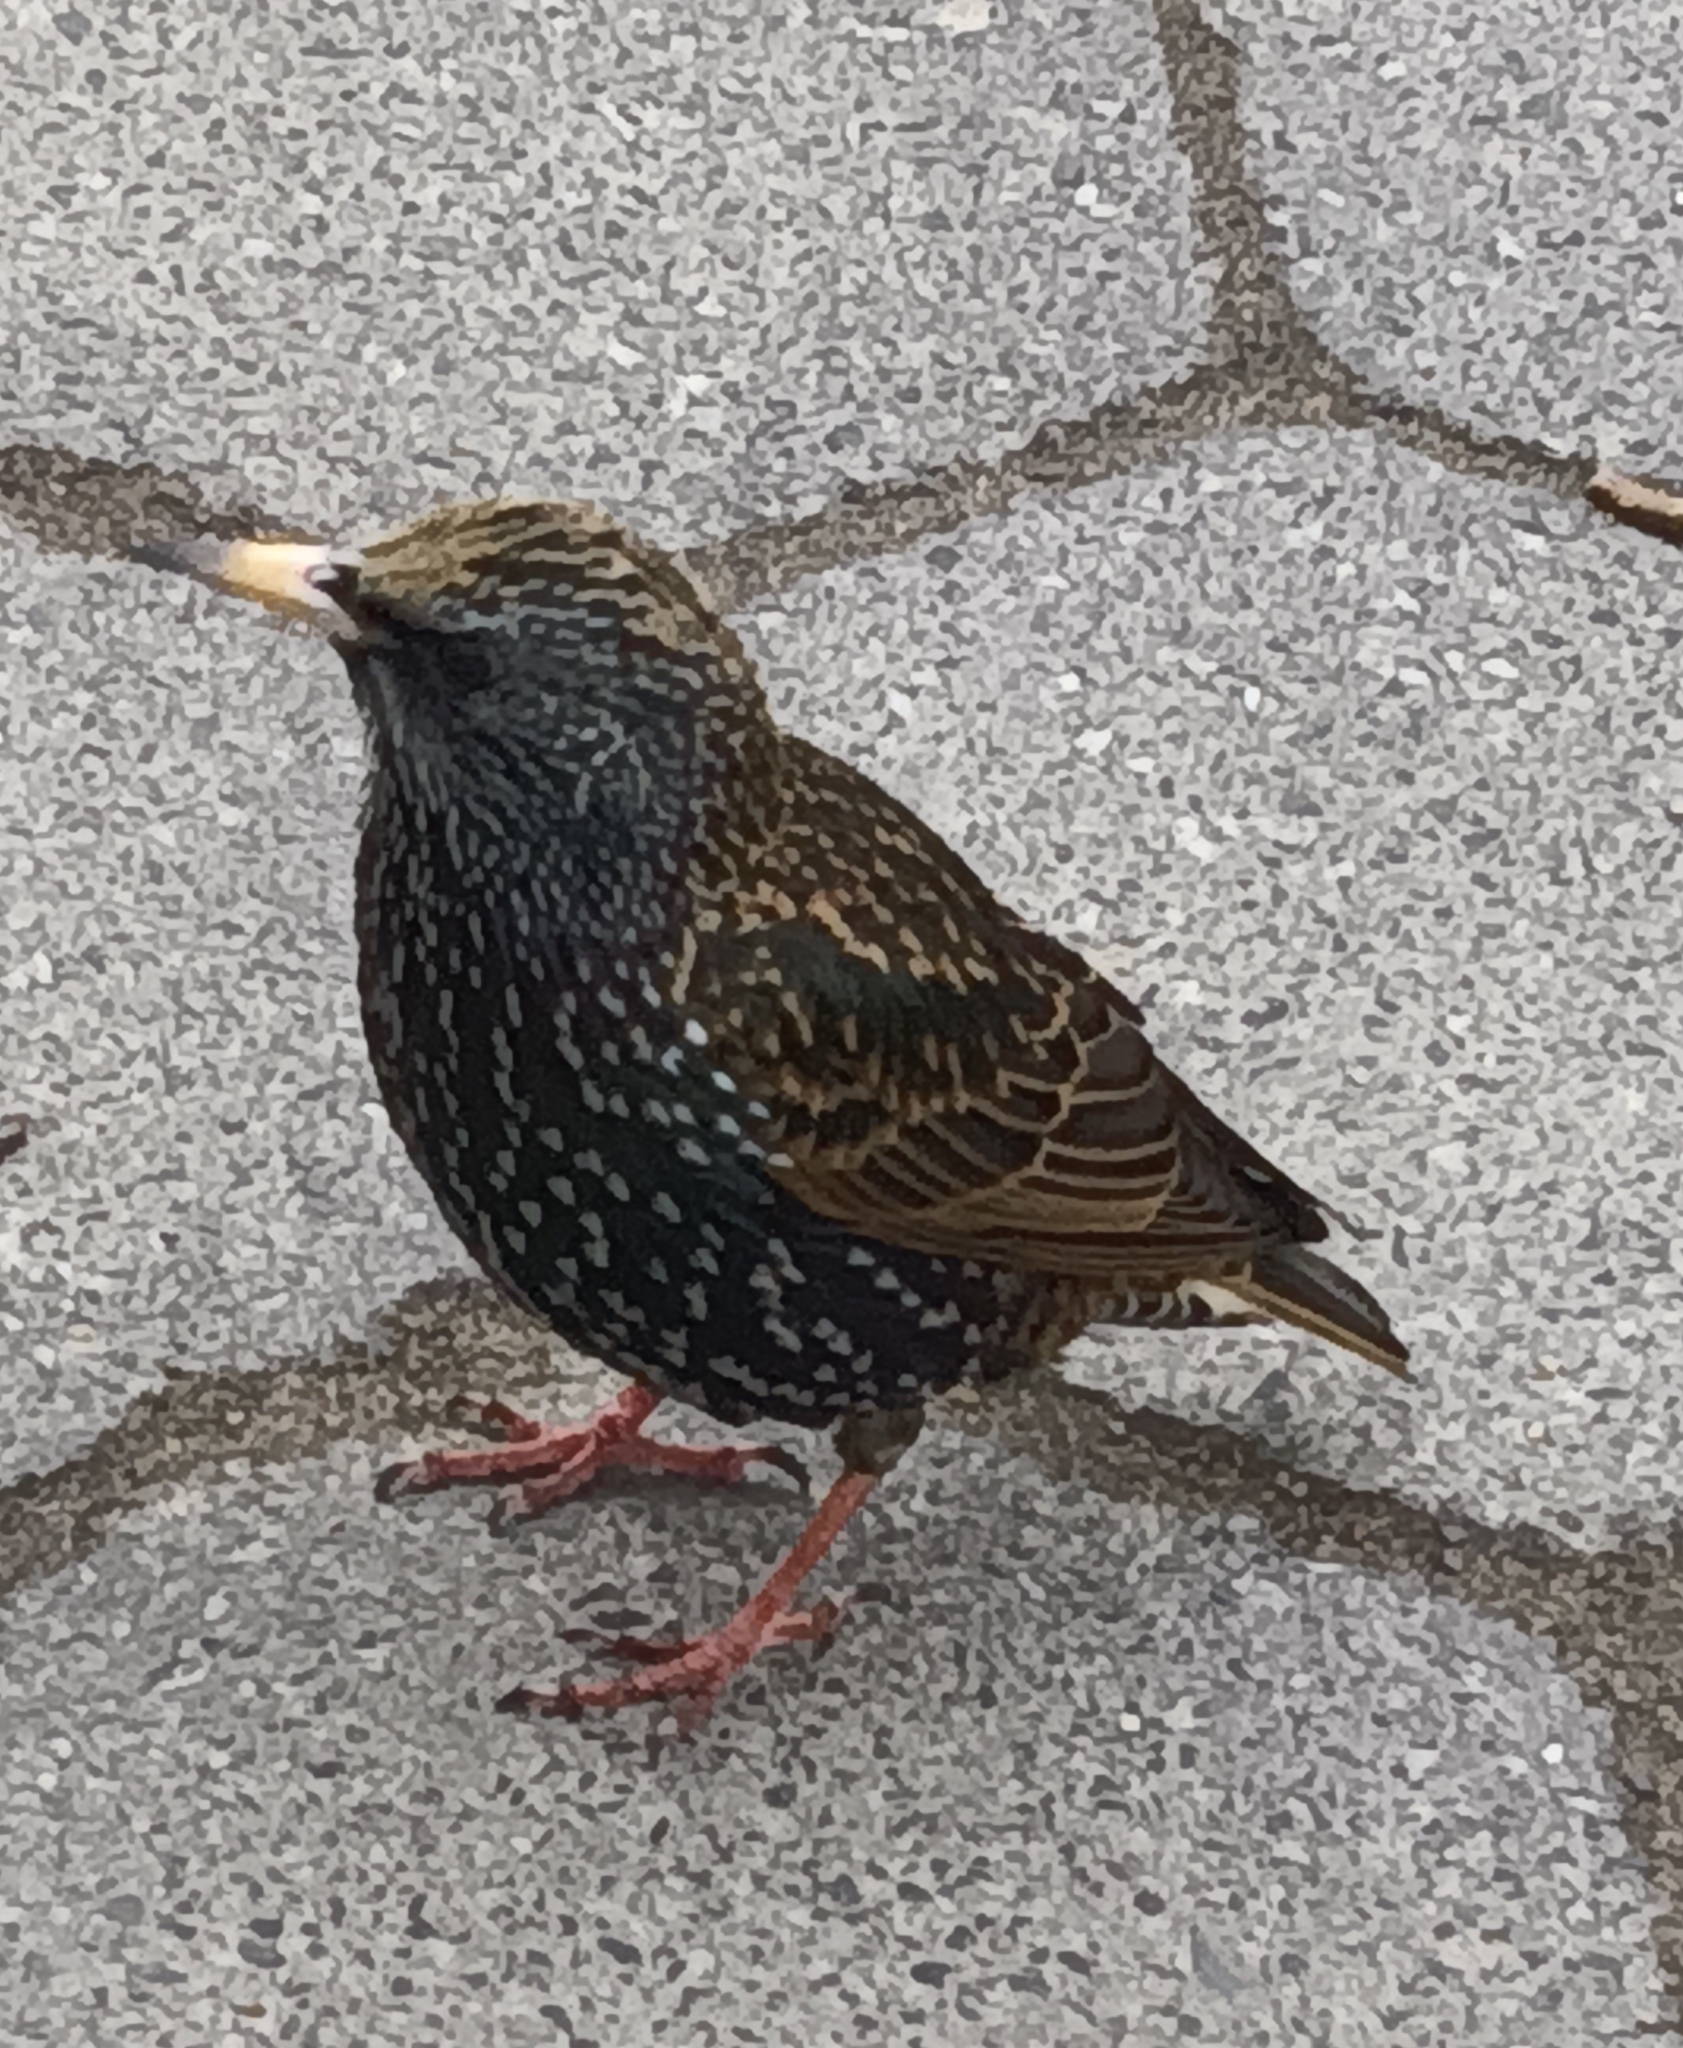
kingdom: Animalia
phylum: Chordata
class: Aves
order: Passeriformes
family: Sturnidae
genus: Sturnus
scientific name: Sturnus vulgaris
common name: Common starling
